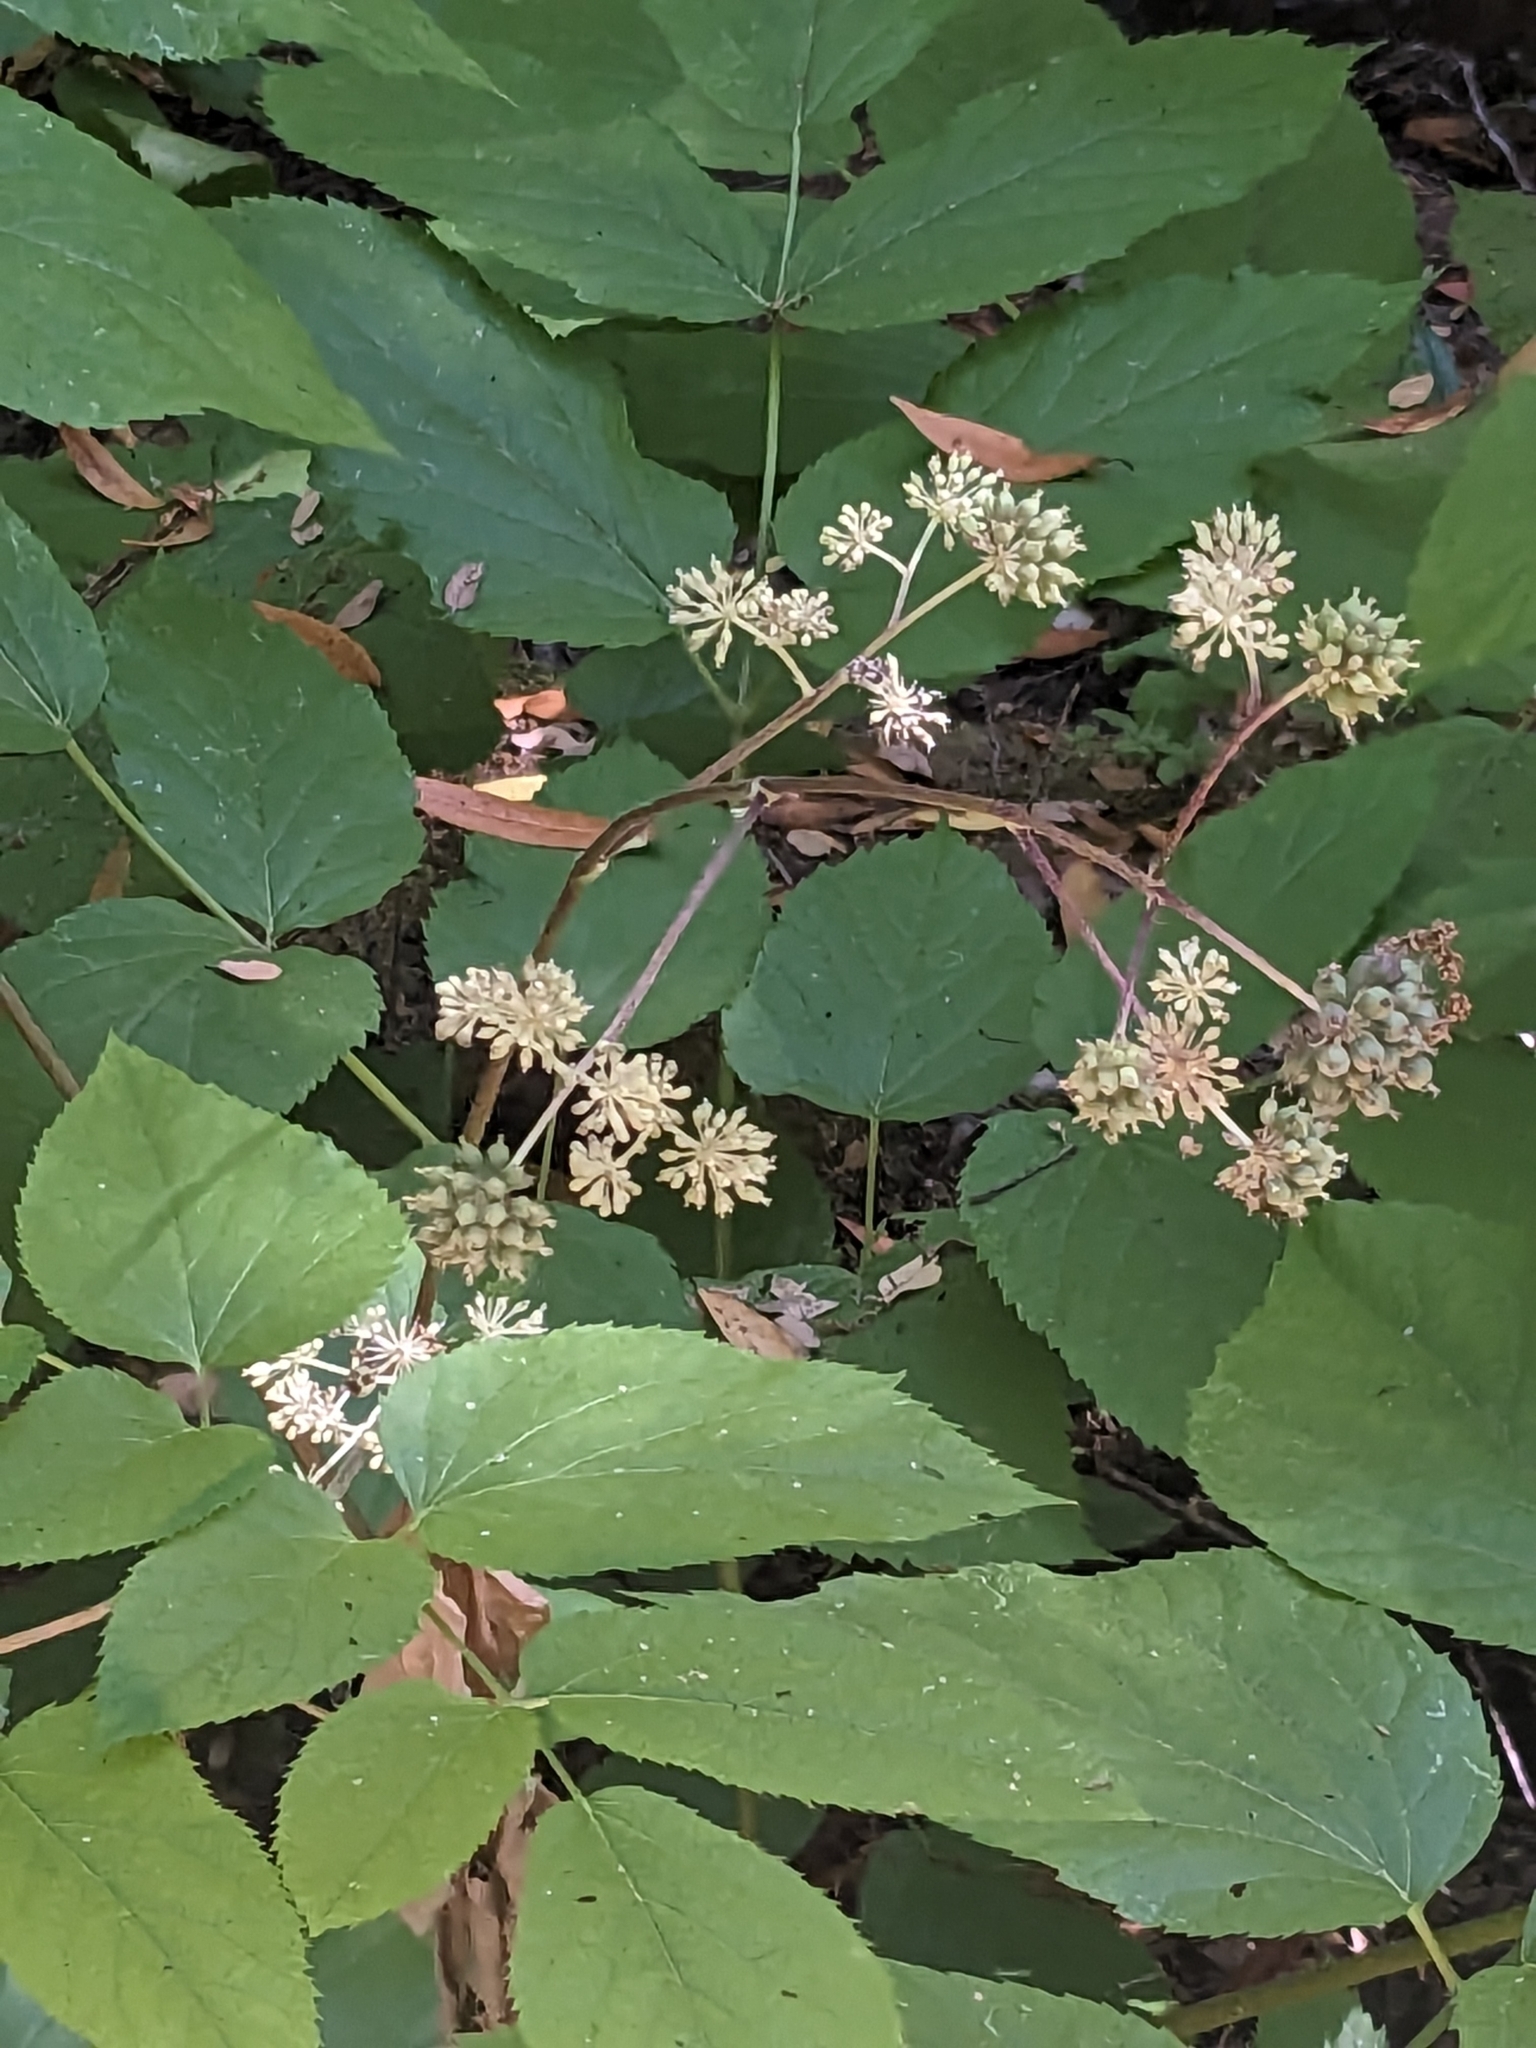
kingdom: Plantae
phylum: Tracheophyta
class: Magnoliopsida
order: Apiales
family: Araliaceae
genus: Aralia
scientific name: Aralia californica
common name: California-ginseng
